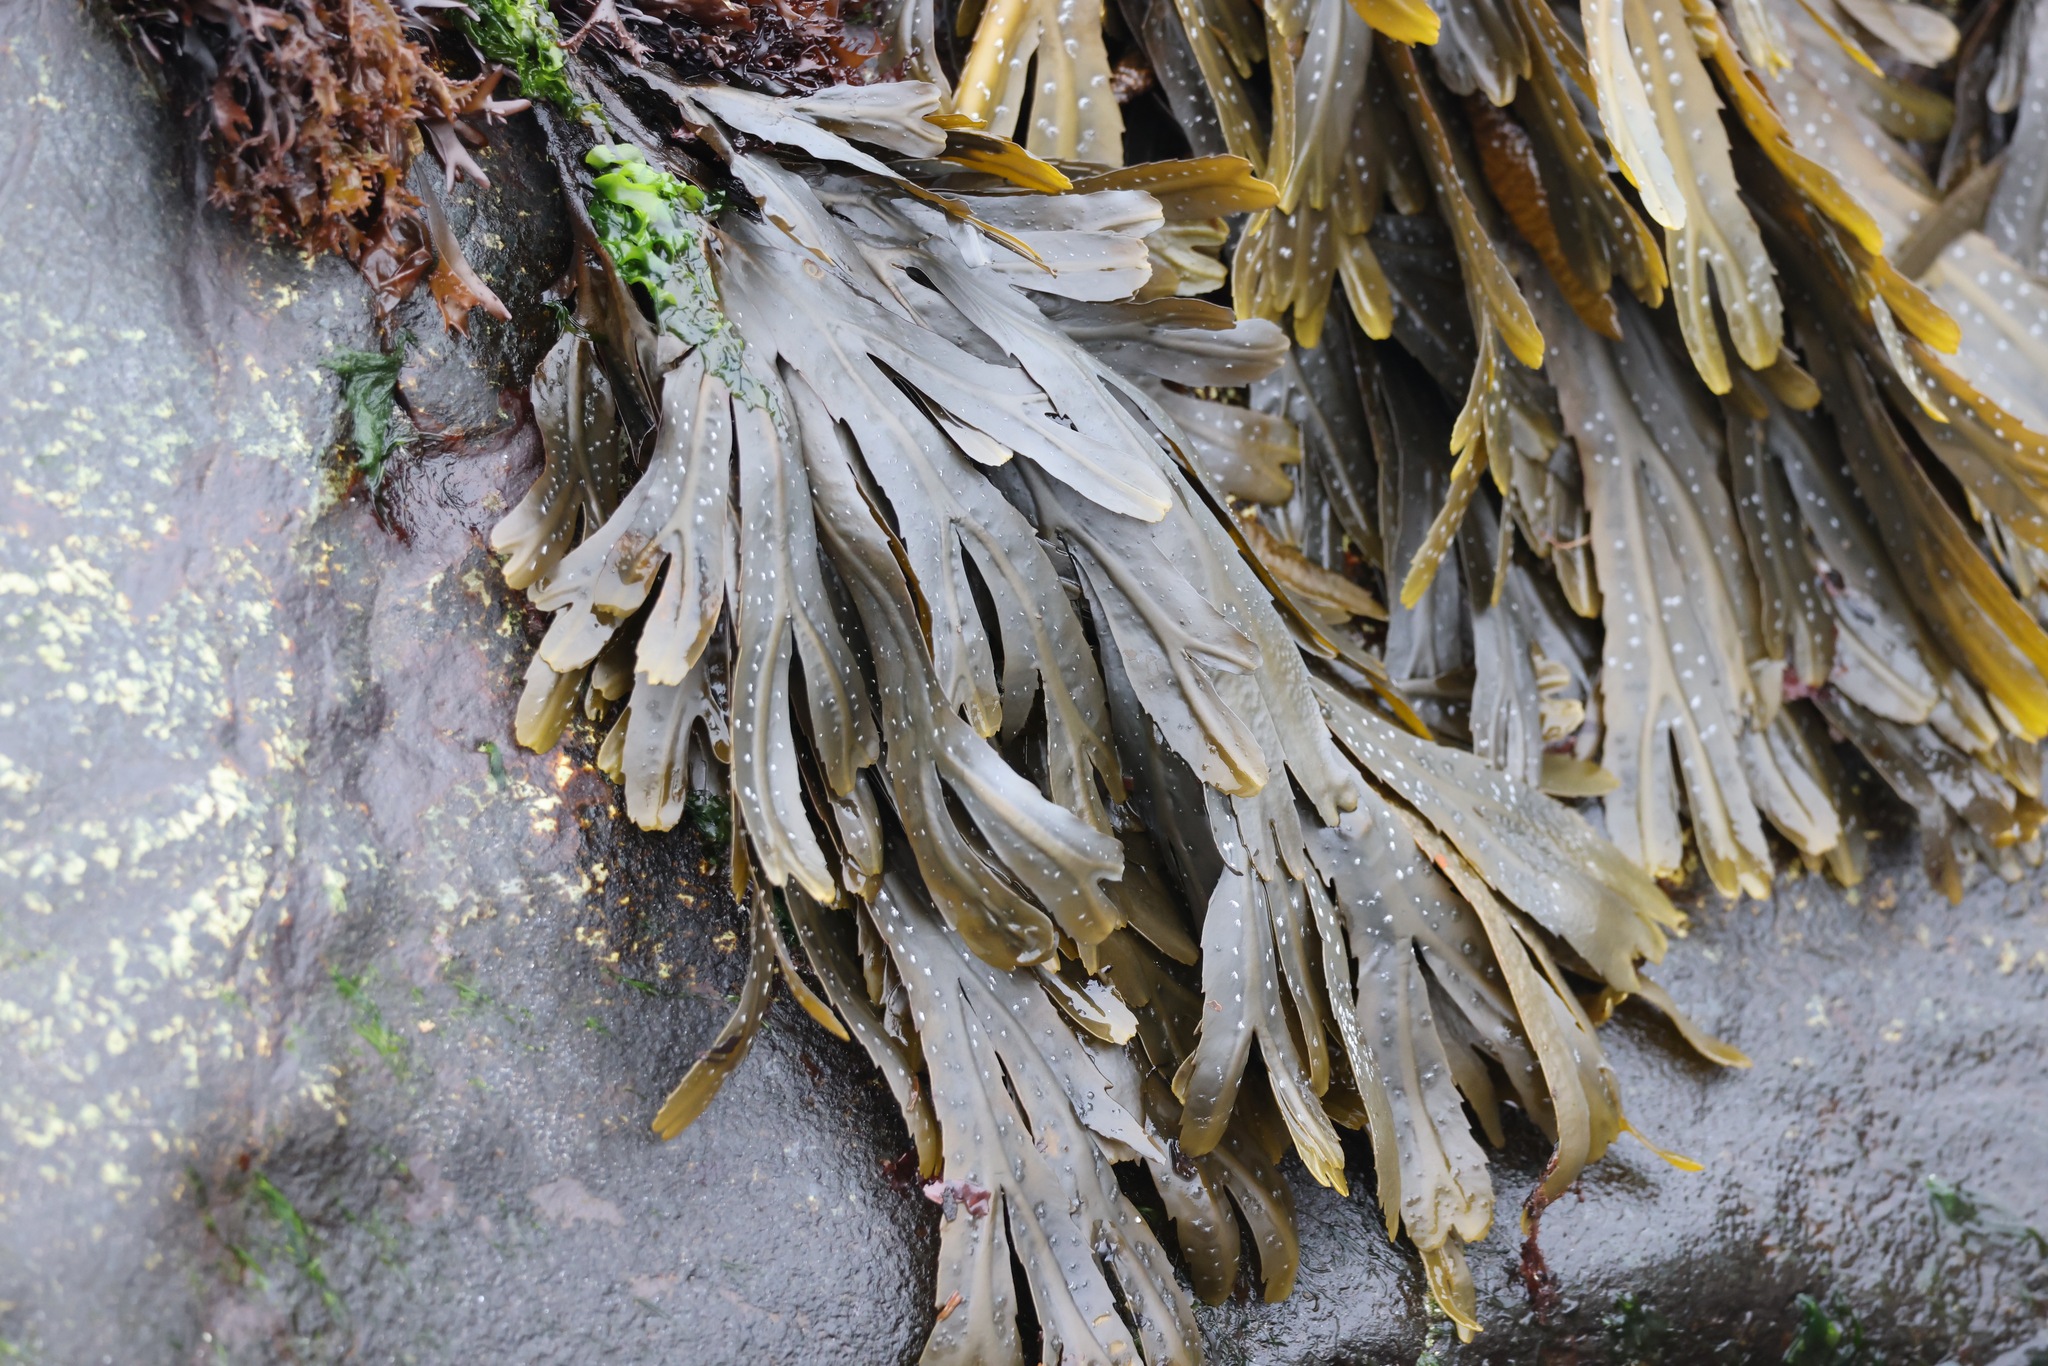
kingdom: Chromista
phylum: Ochrophyta
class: Phaeophyceae
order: Fucales
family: Fucaceae
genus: Fucus
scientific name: Fucus serratus
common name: Toothed wrack
